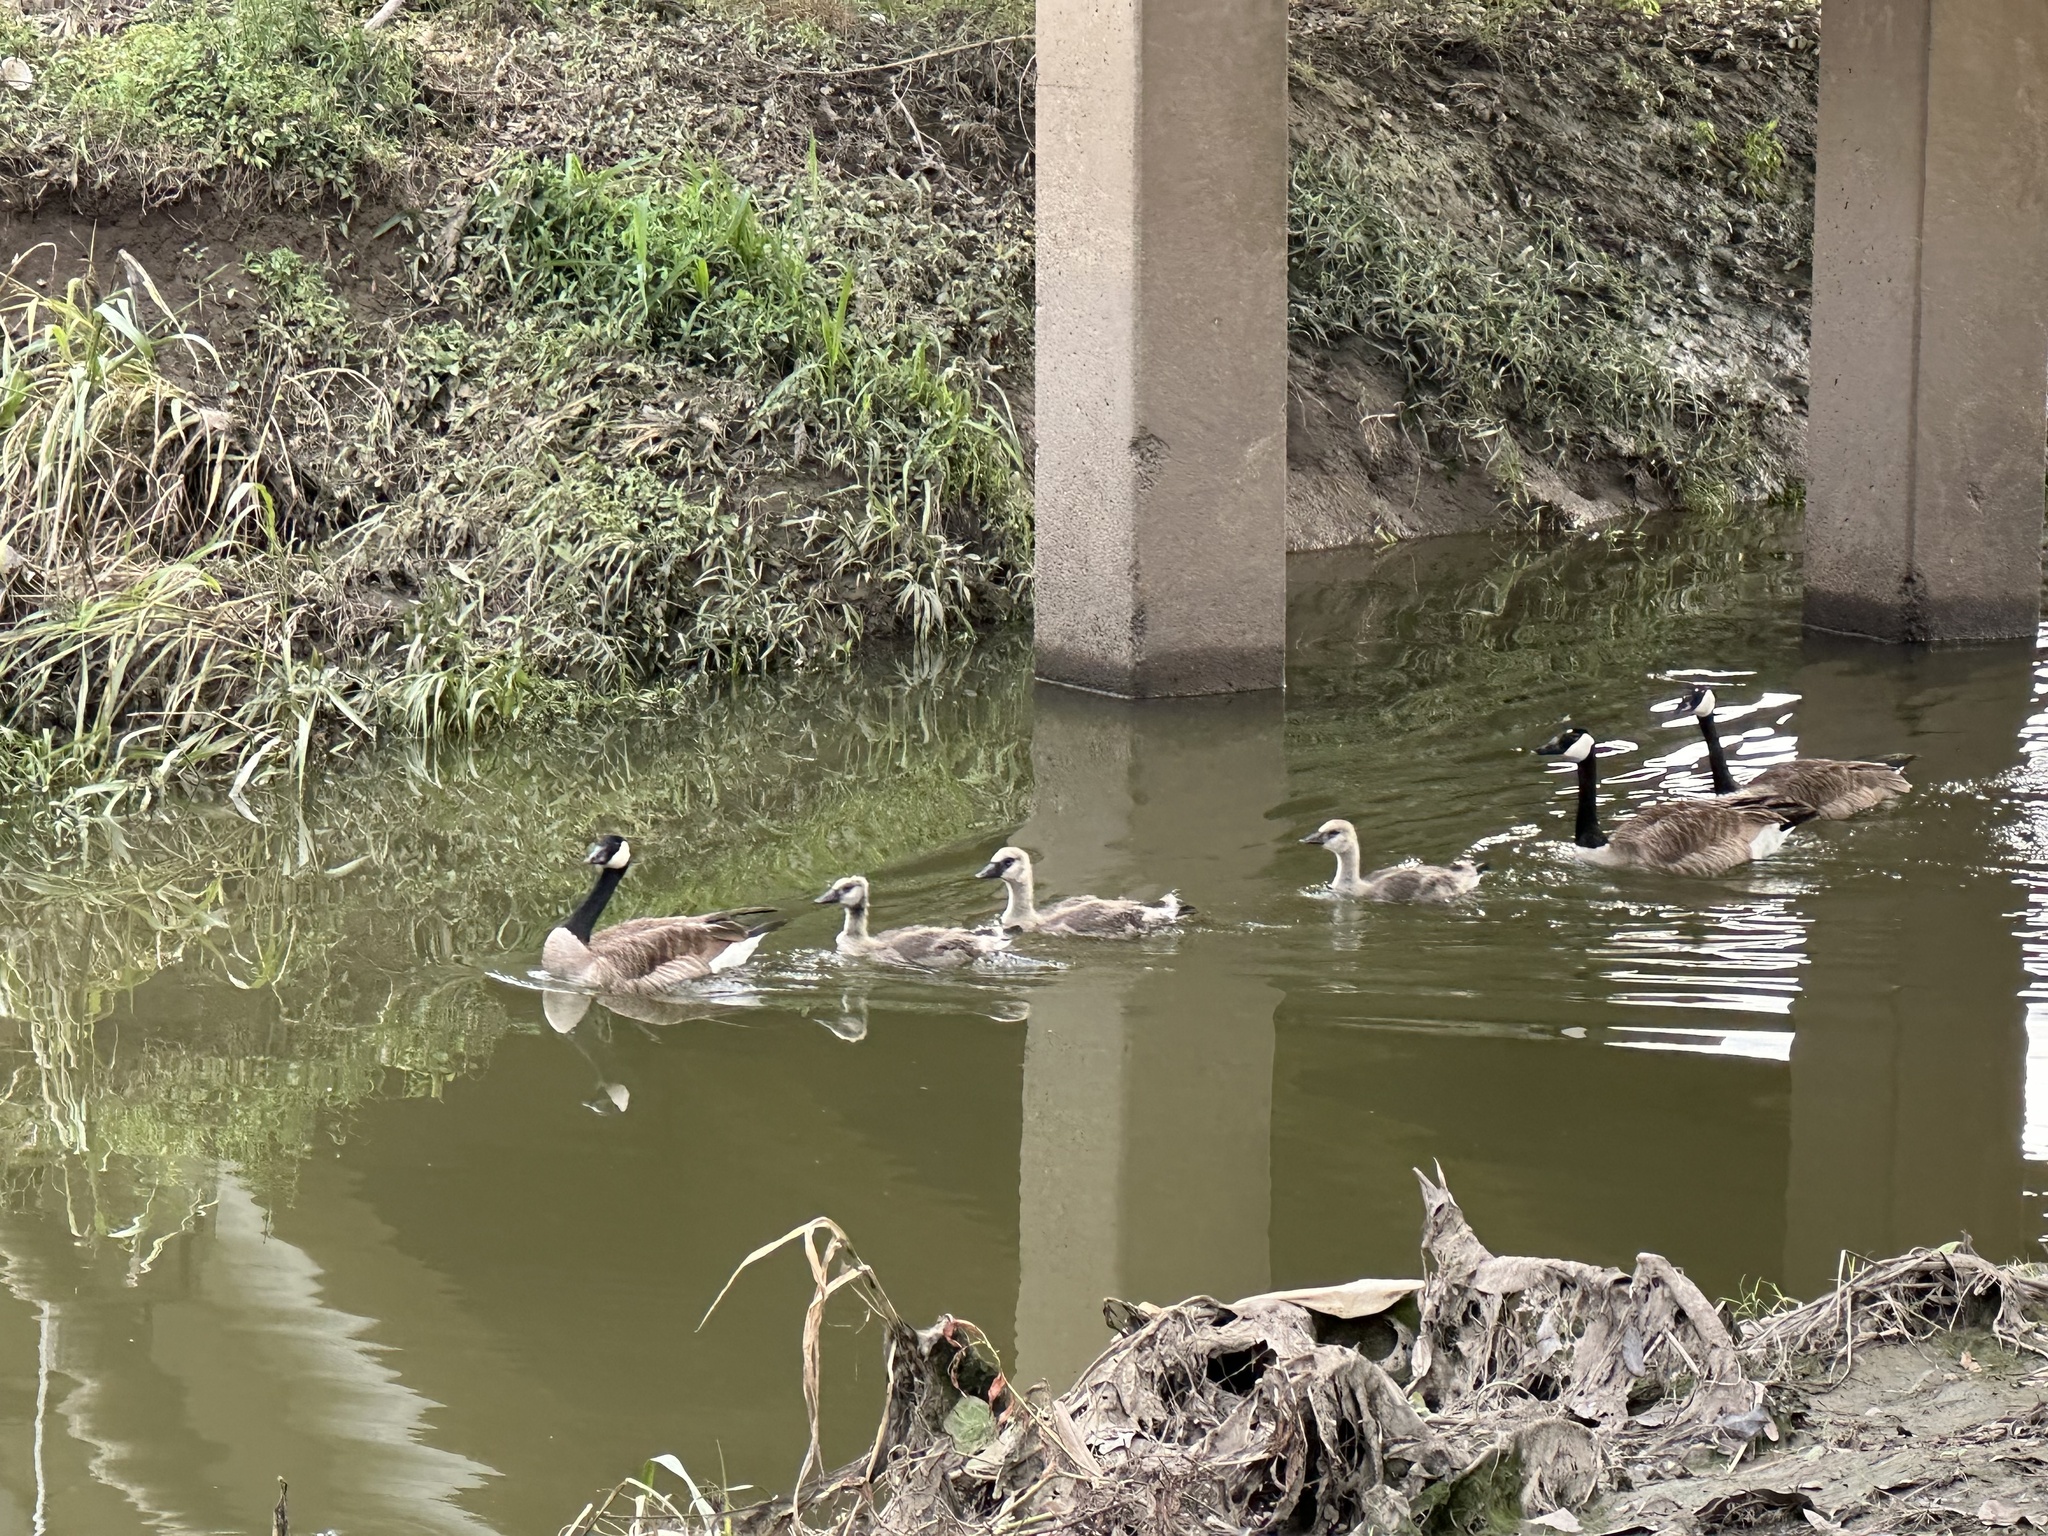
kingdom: Animalia
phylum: Chordata
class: Aves
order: Anseriformes
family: Anatidae
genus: Branta
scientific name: Branta canadensis
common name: Canada goose
